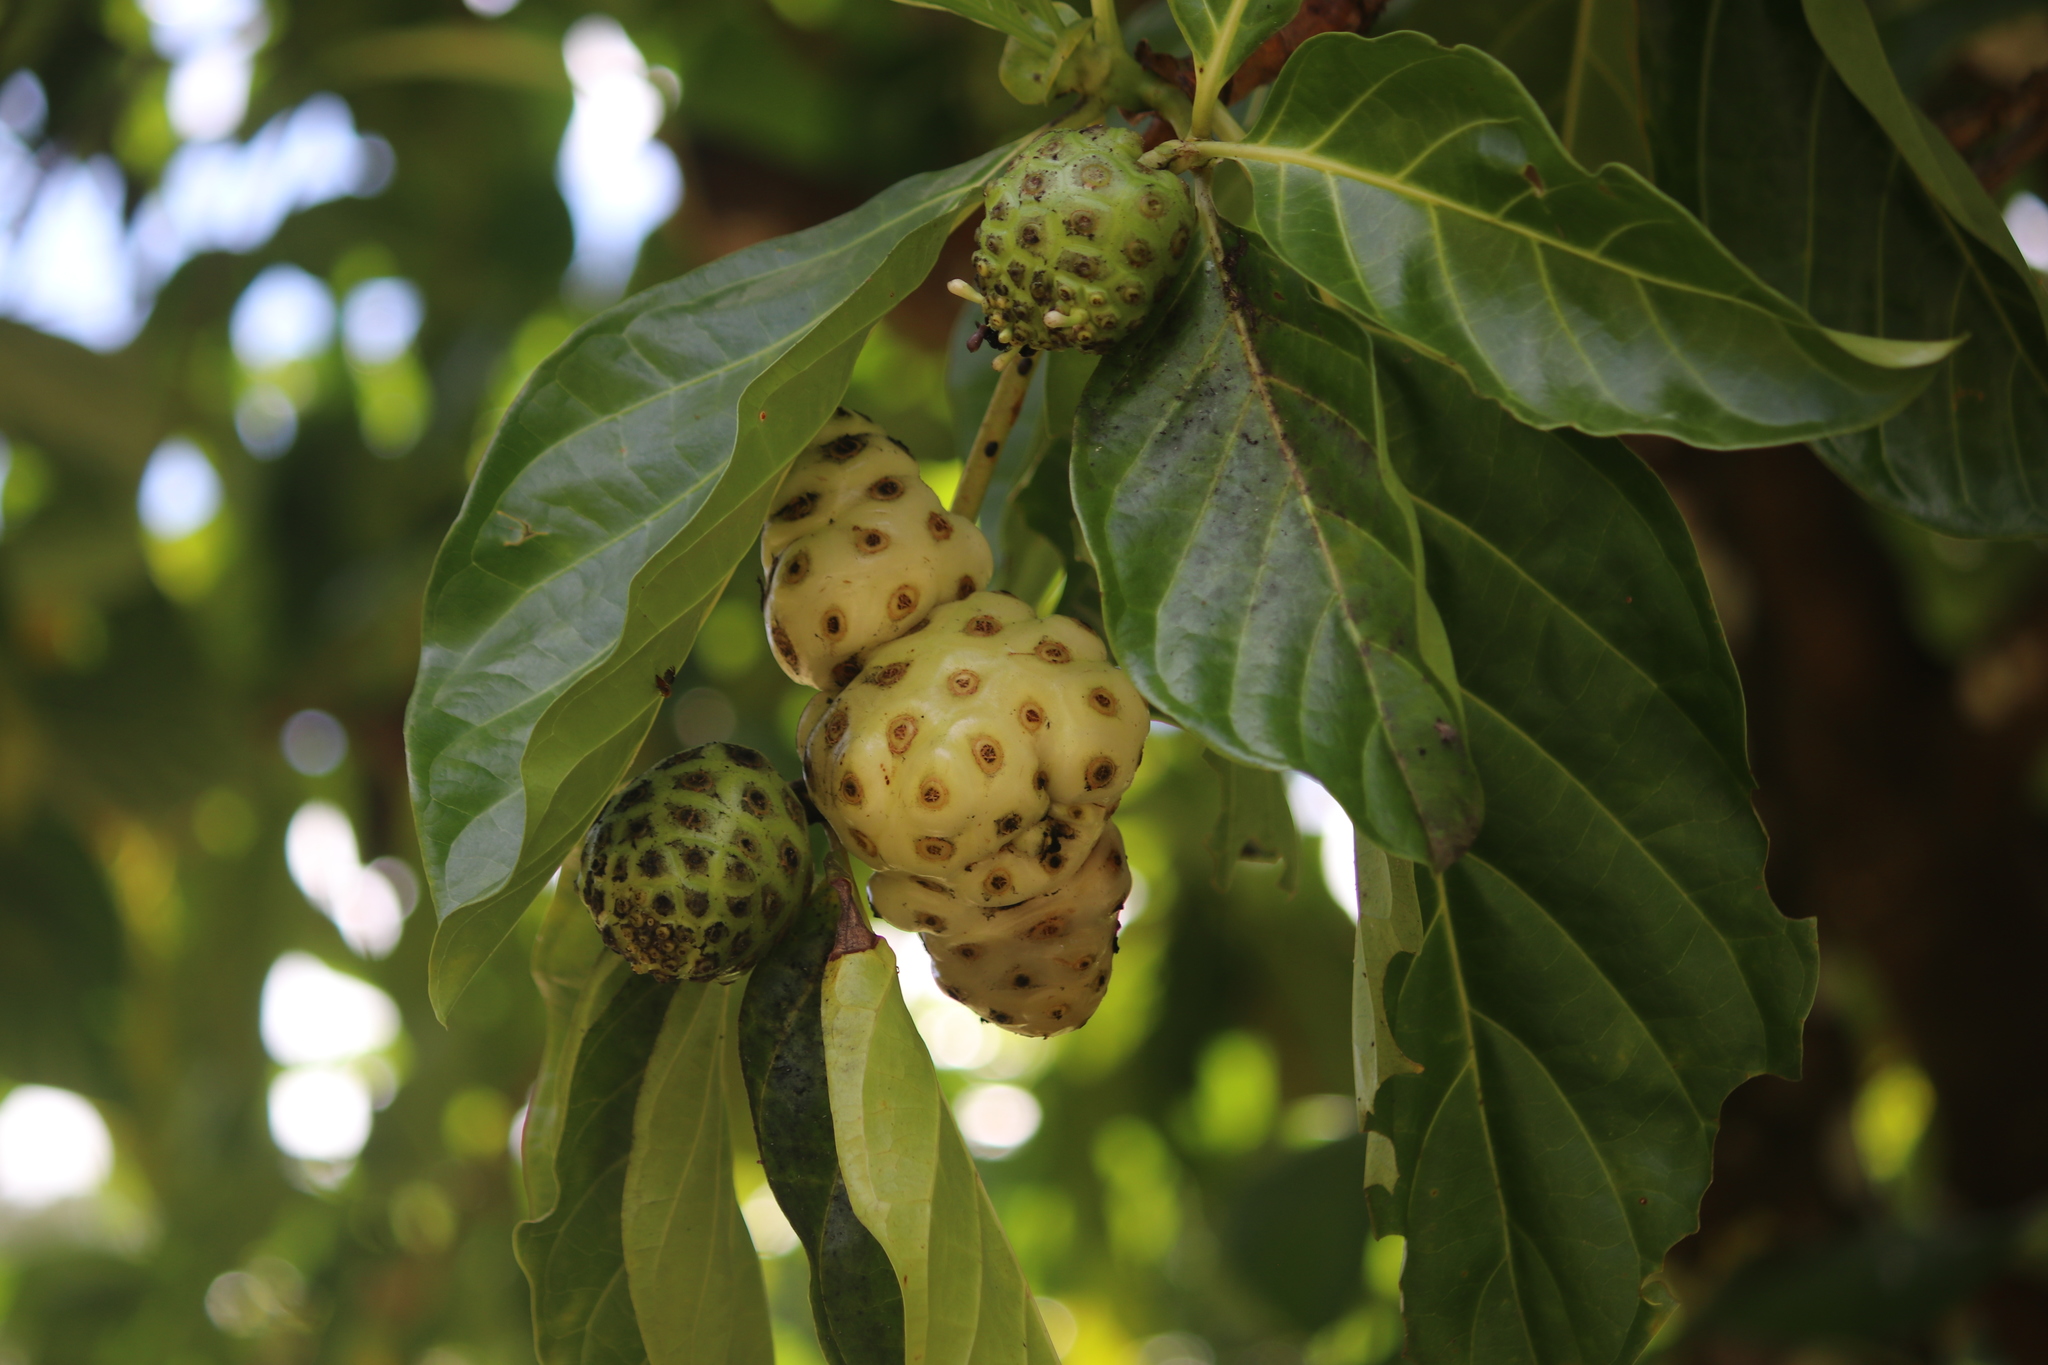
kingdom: Plantae
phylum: Tracheophyta
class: Magnoliopsida
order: Gentianales
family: Rubiaceae
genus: Morinda
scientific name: Morinda citrifolia
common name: Indian-mulberry
